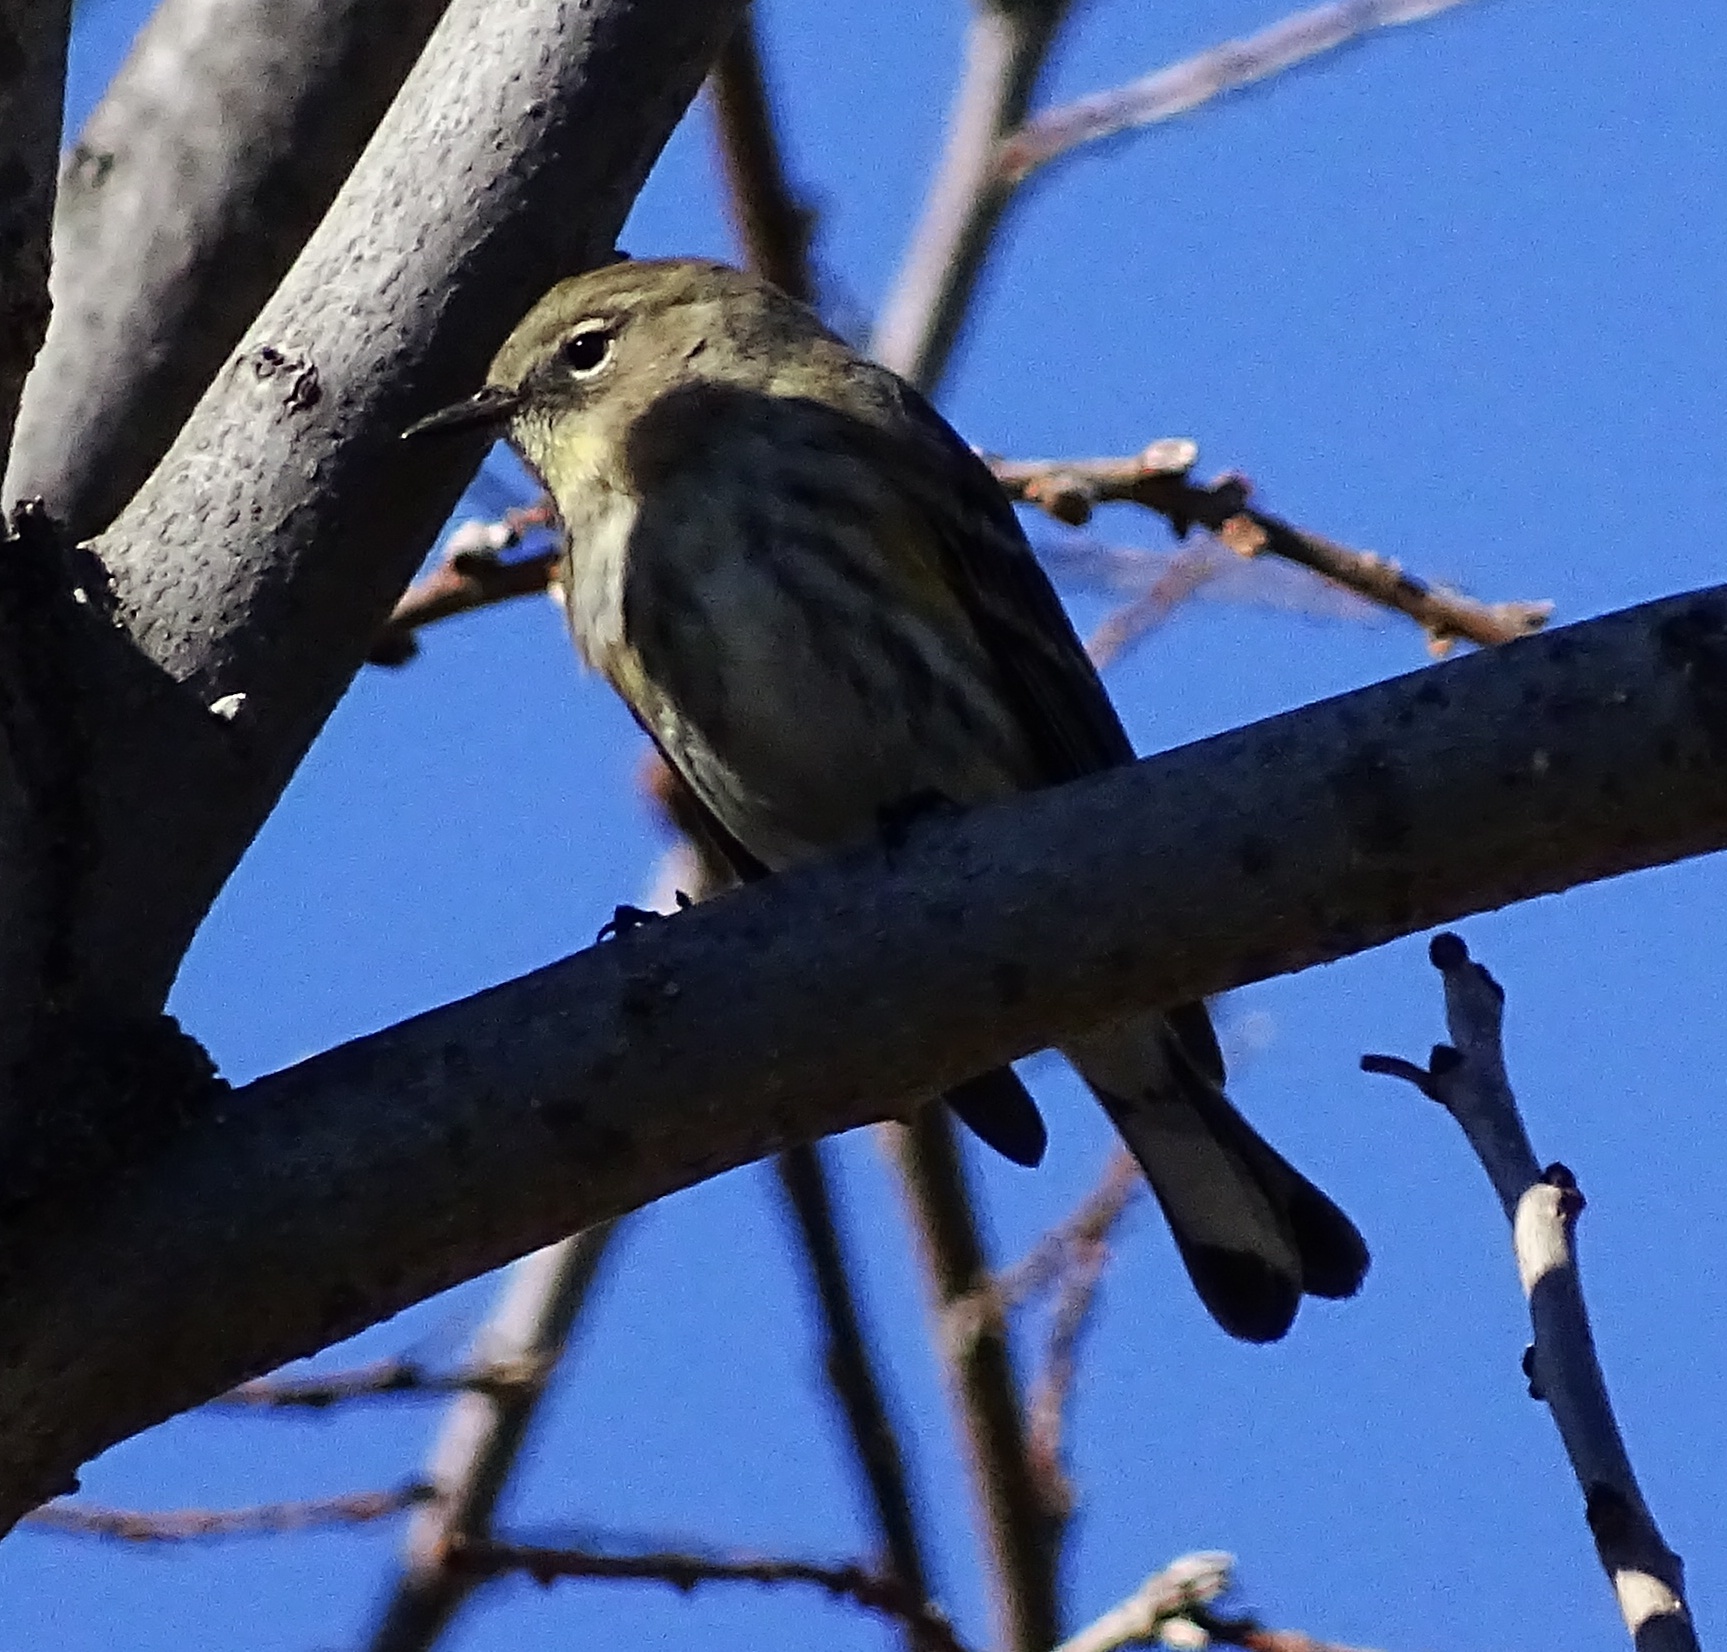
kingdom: Animalia
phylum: Chordata
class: Aves
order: Passeriformes
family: Parulidae
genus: Setophaga
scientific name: Setophaga coronata
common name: Myrtle warbler
